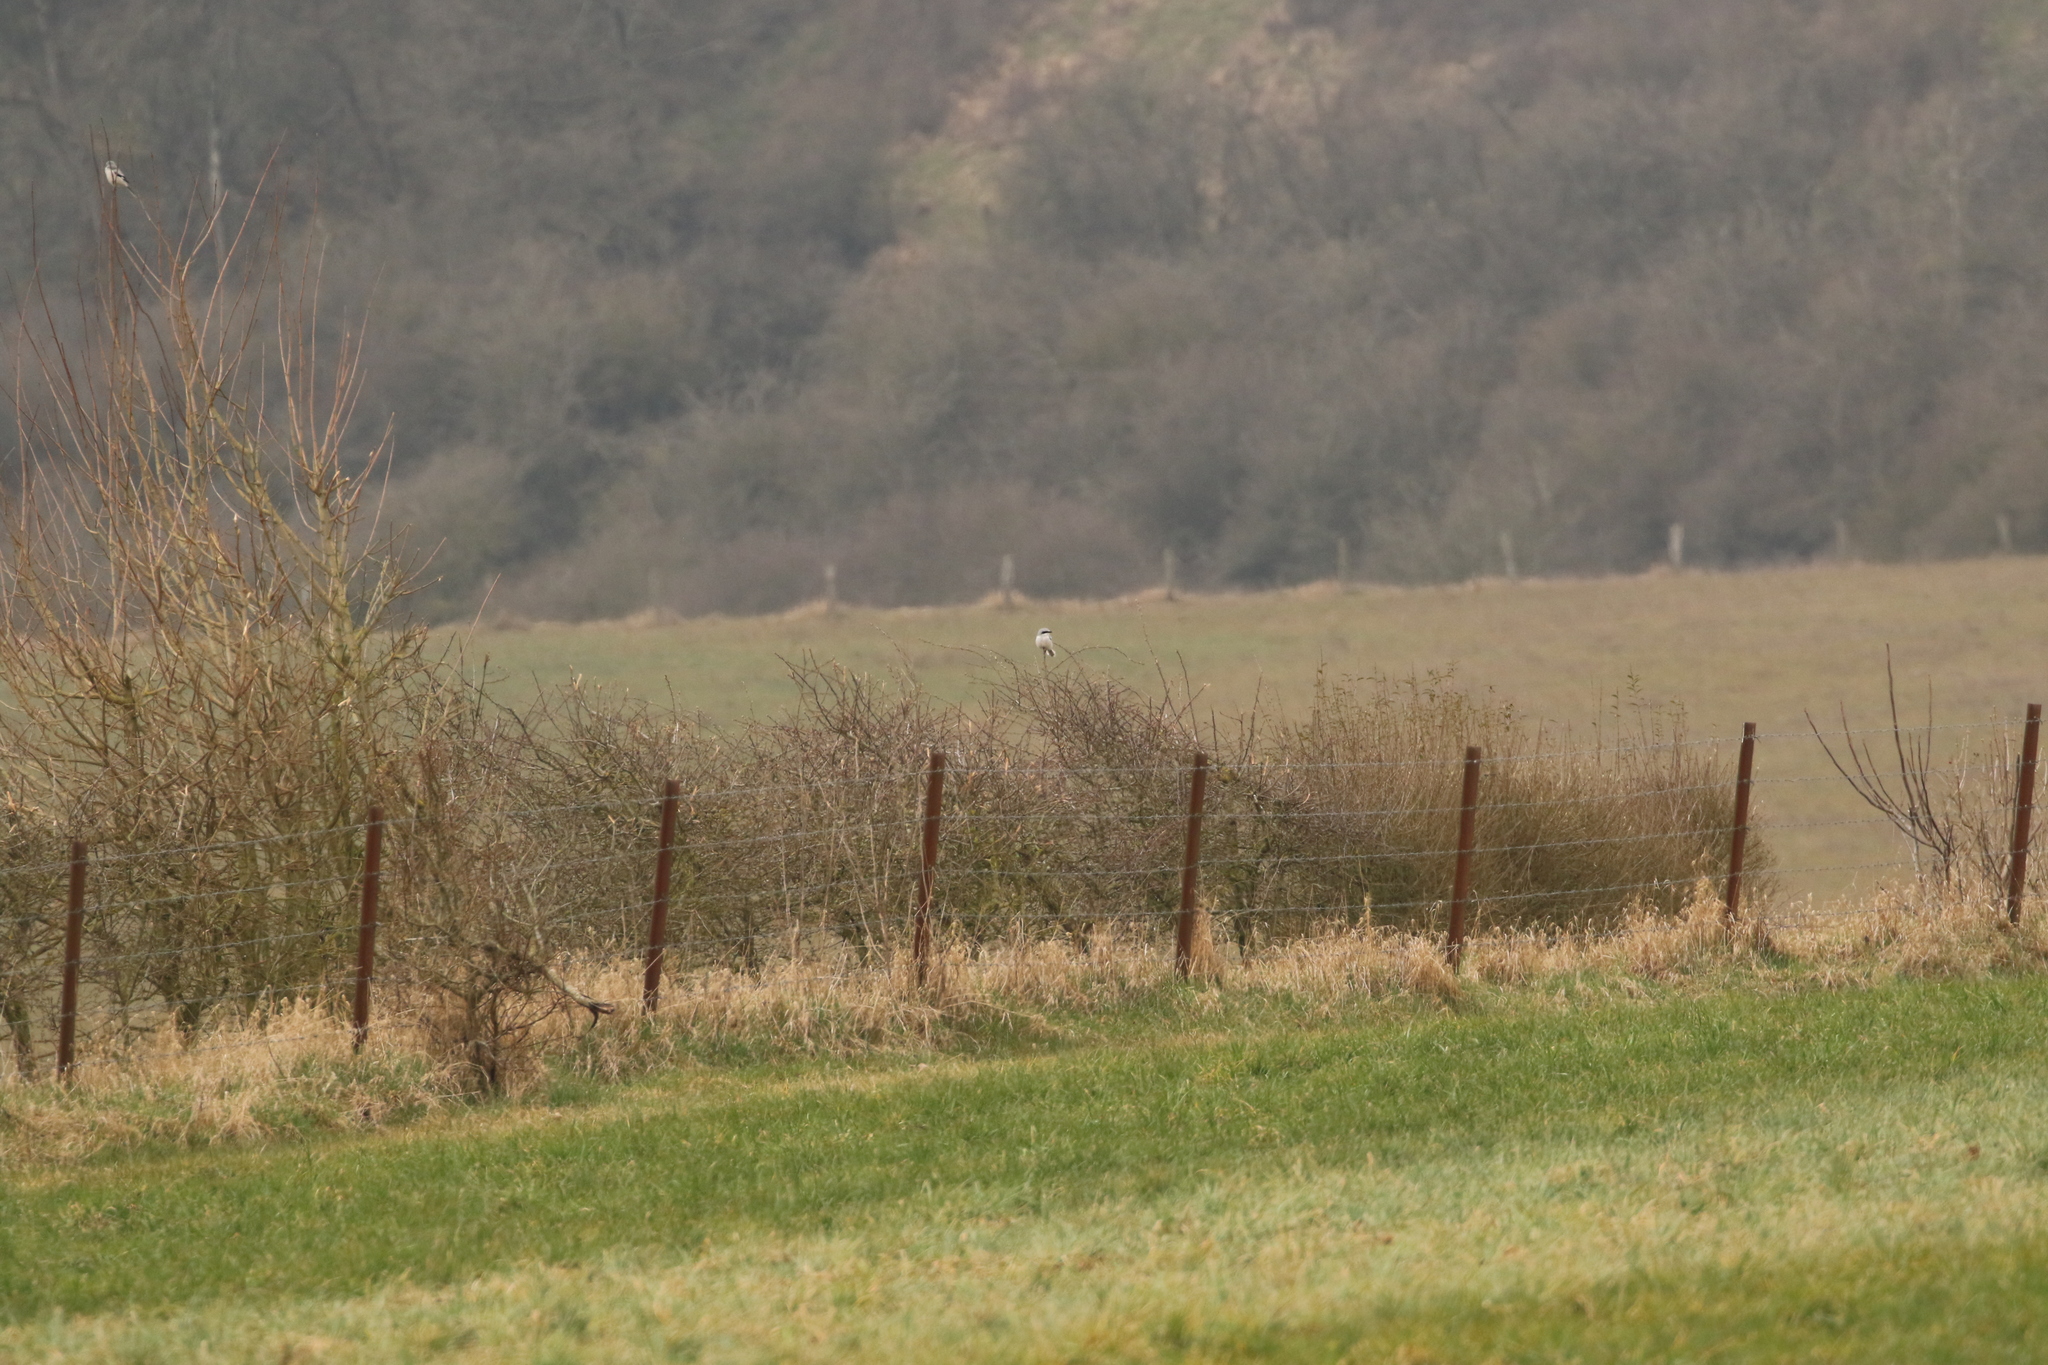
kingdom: Animalia
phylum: Chordata
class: Aves
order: Passeriformes
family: Laniidae
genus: Lanius
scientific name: Lanius excubitor
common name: Great grey shrike
